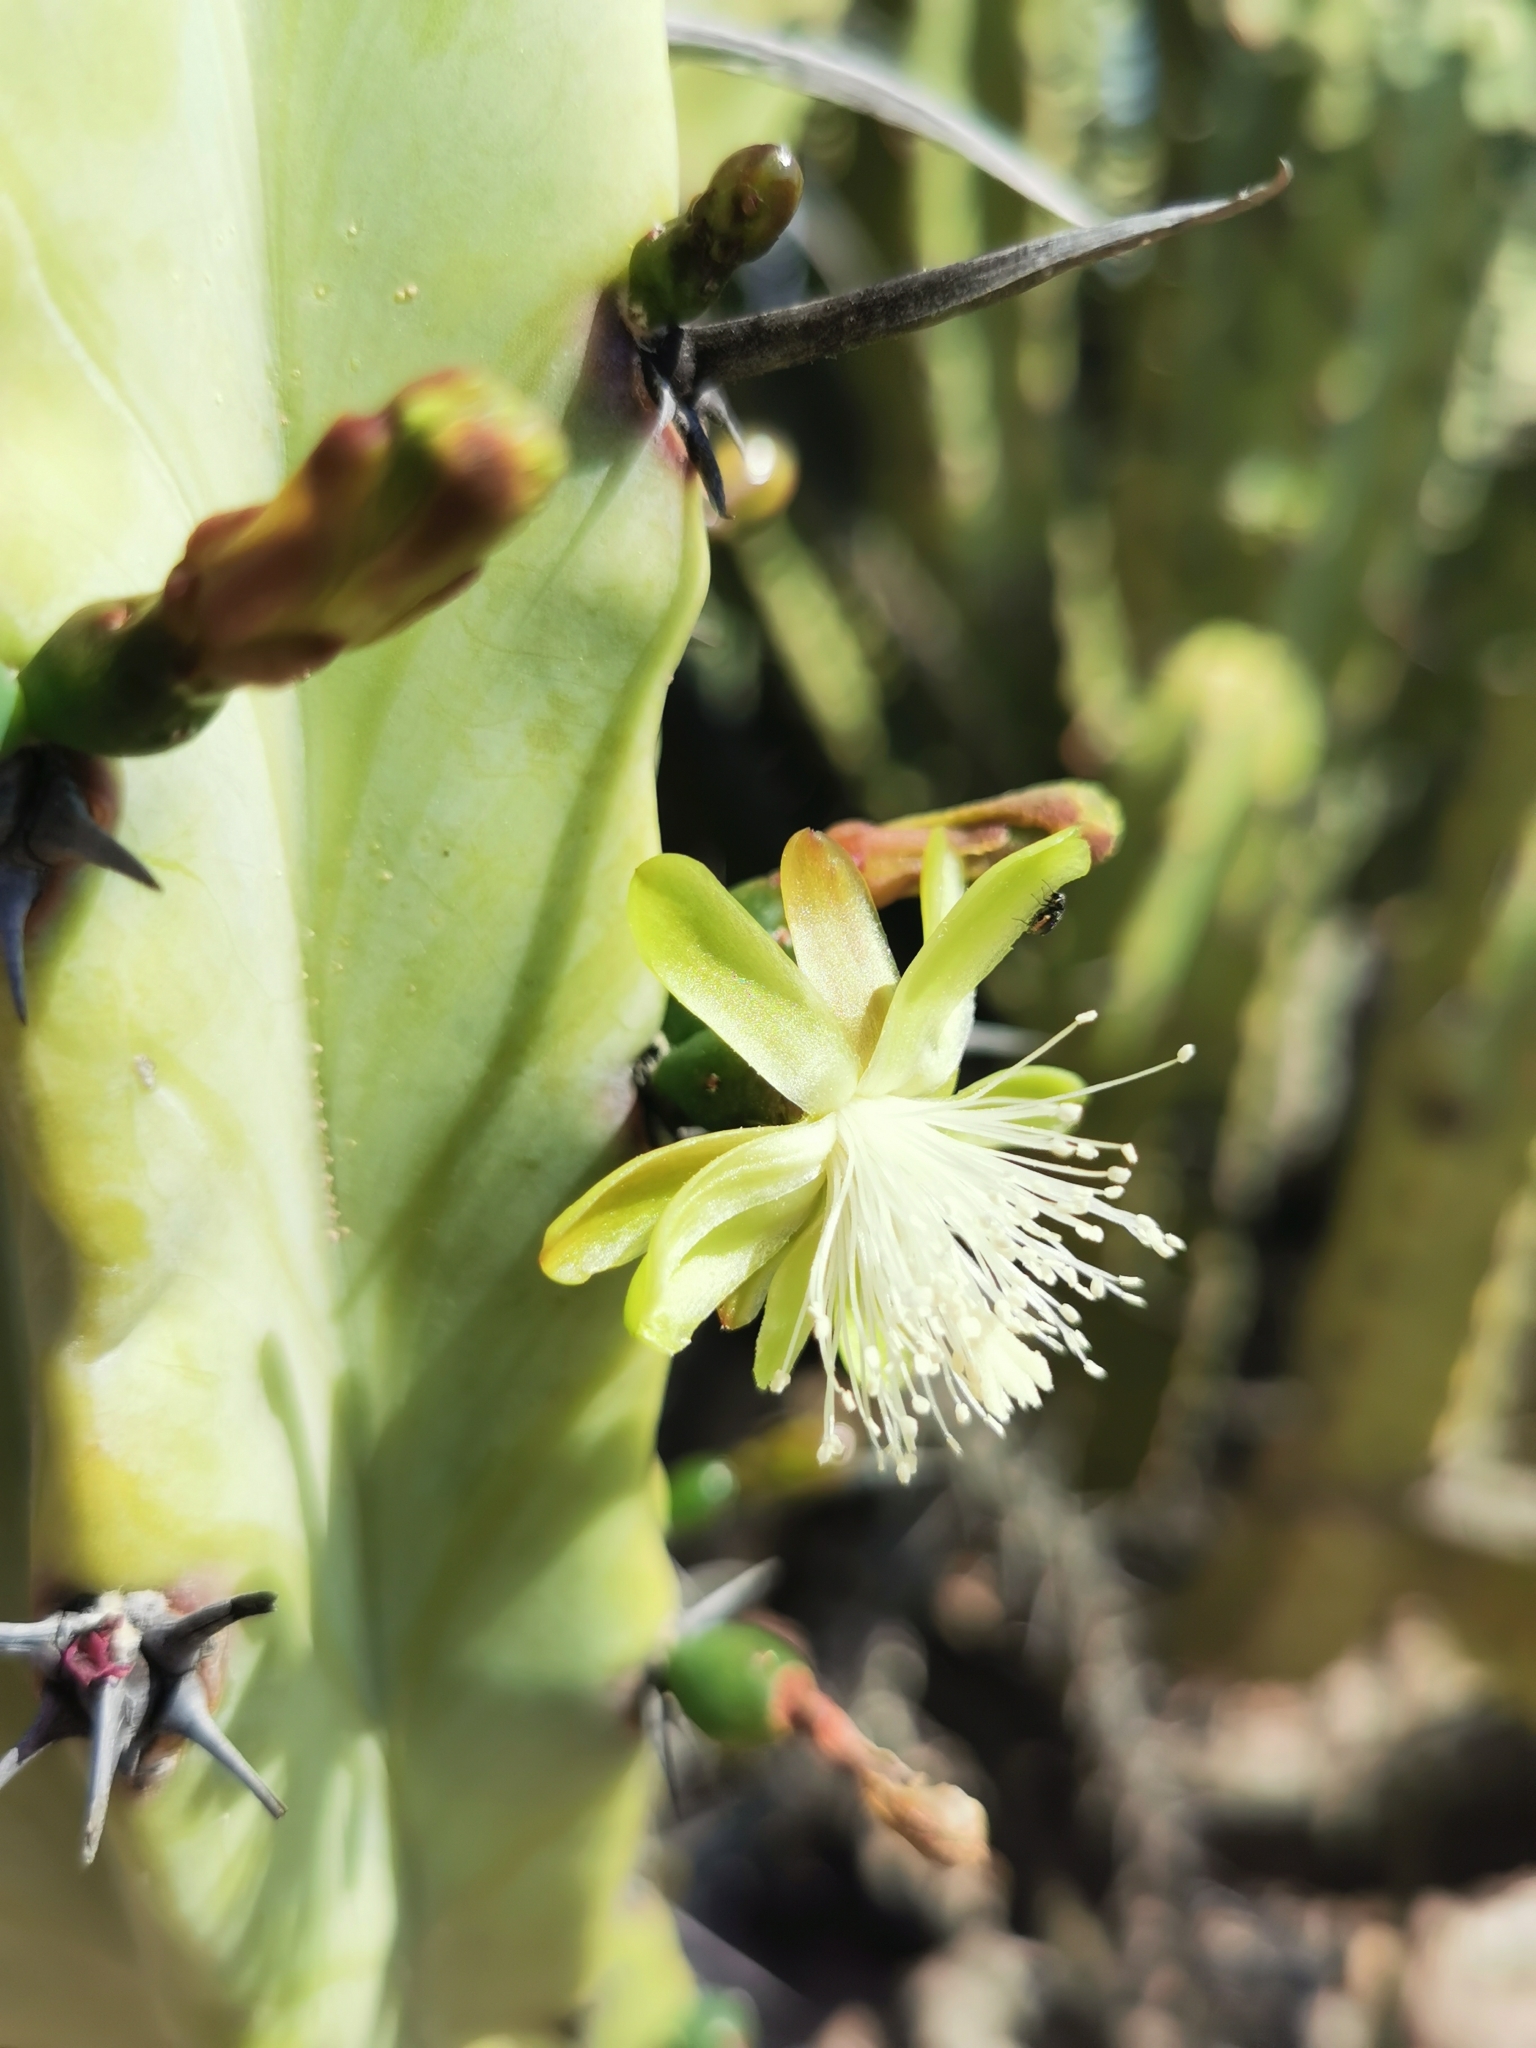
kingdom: Plantae
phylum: Tracheophyta
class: Magnoliopsida
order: Caryophyllales
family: Cactaceae
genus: Myrtillocactus
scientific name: Myrtillocactus geometrizans
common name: Bilberry cactus
